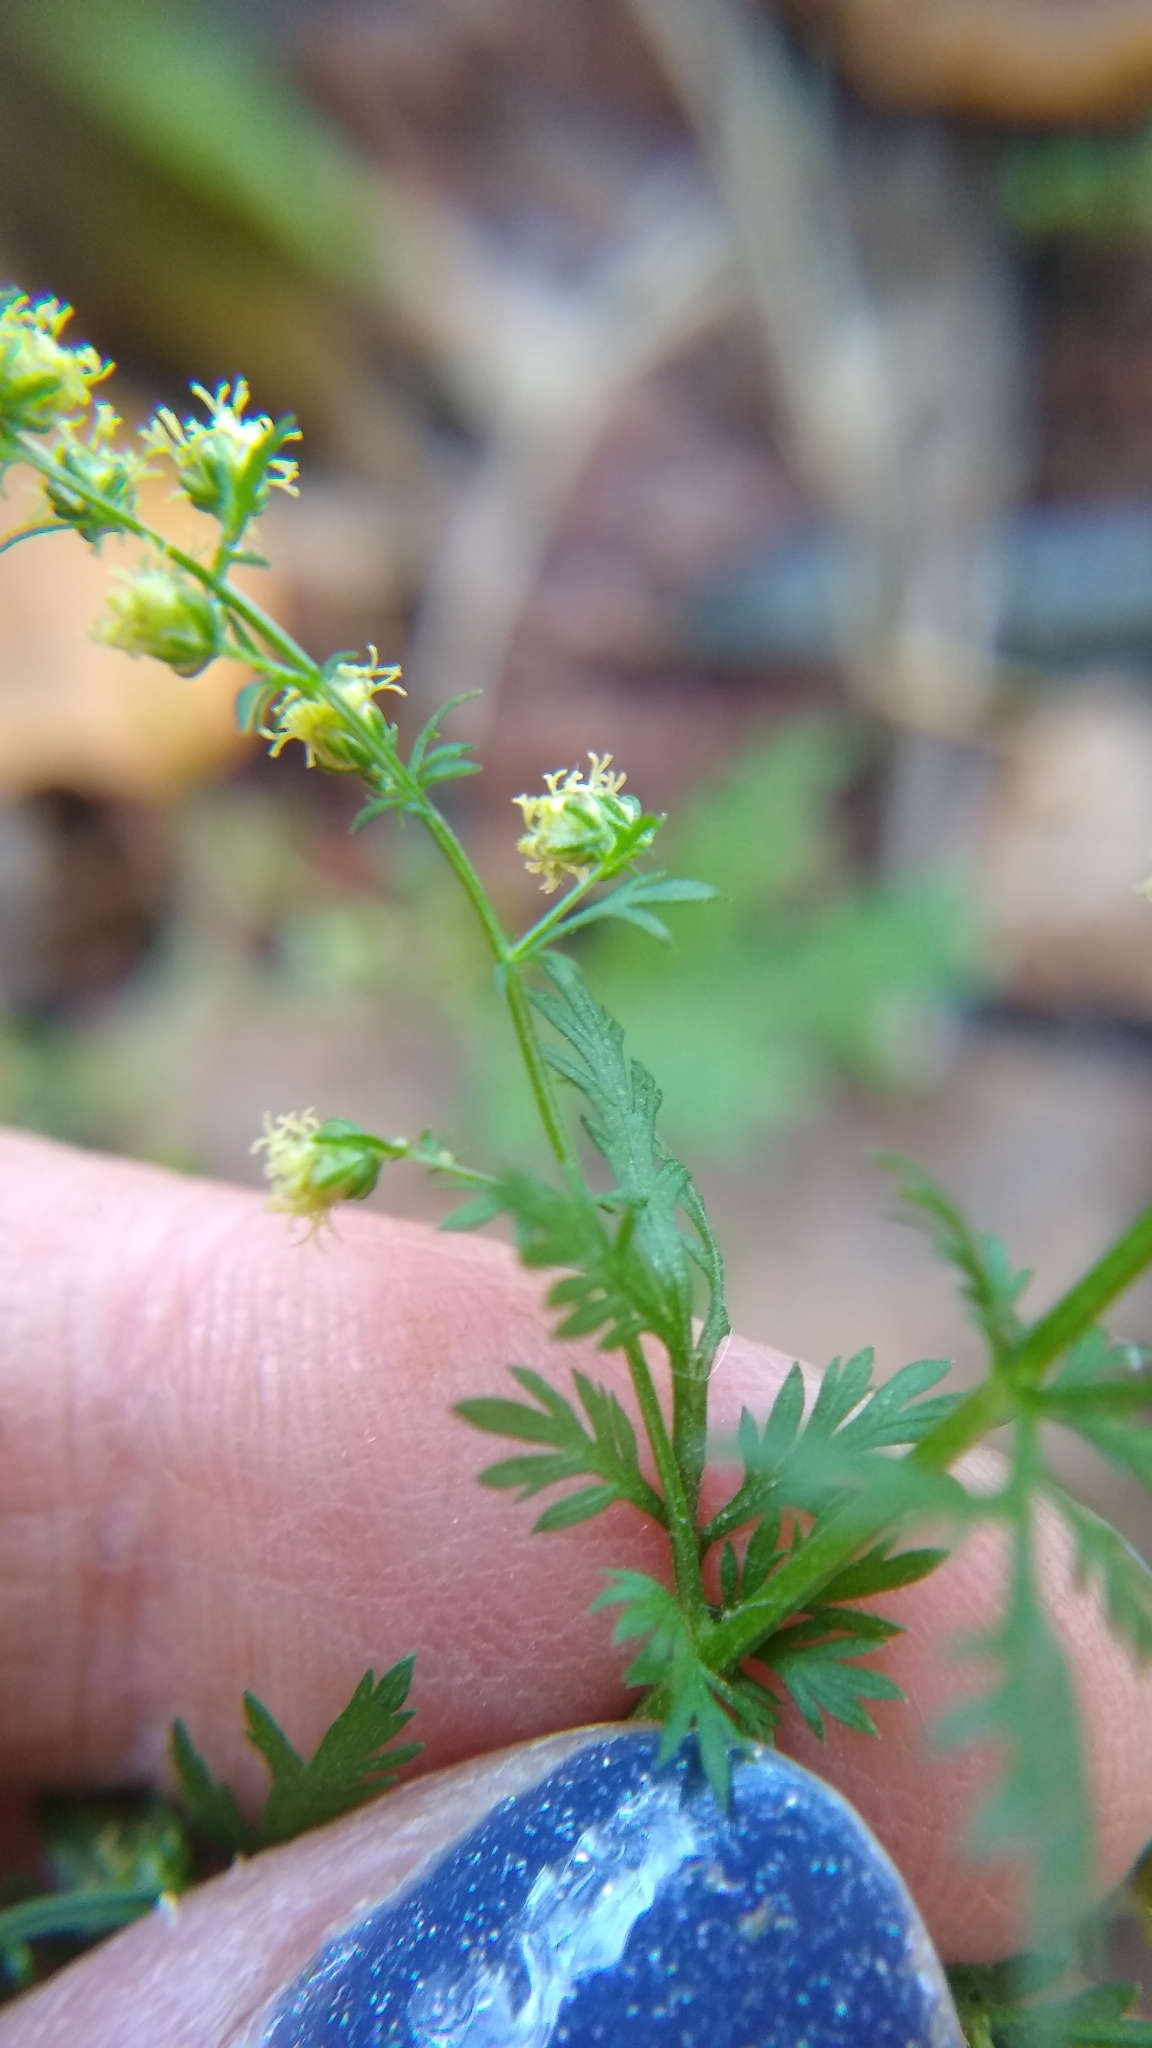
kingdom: Plantae
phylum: Tracheophyta
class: Magnoliopsida
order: Asterales
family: Asteraceae
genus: Artemisia
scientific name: Artemisia annua
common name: Sweet sagewort
